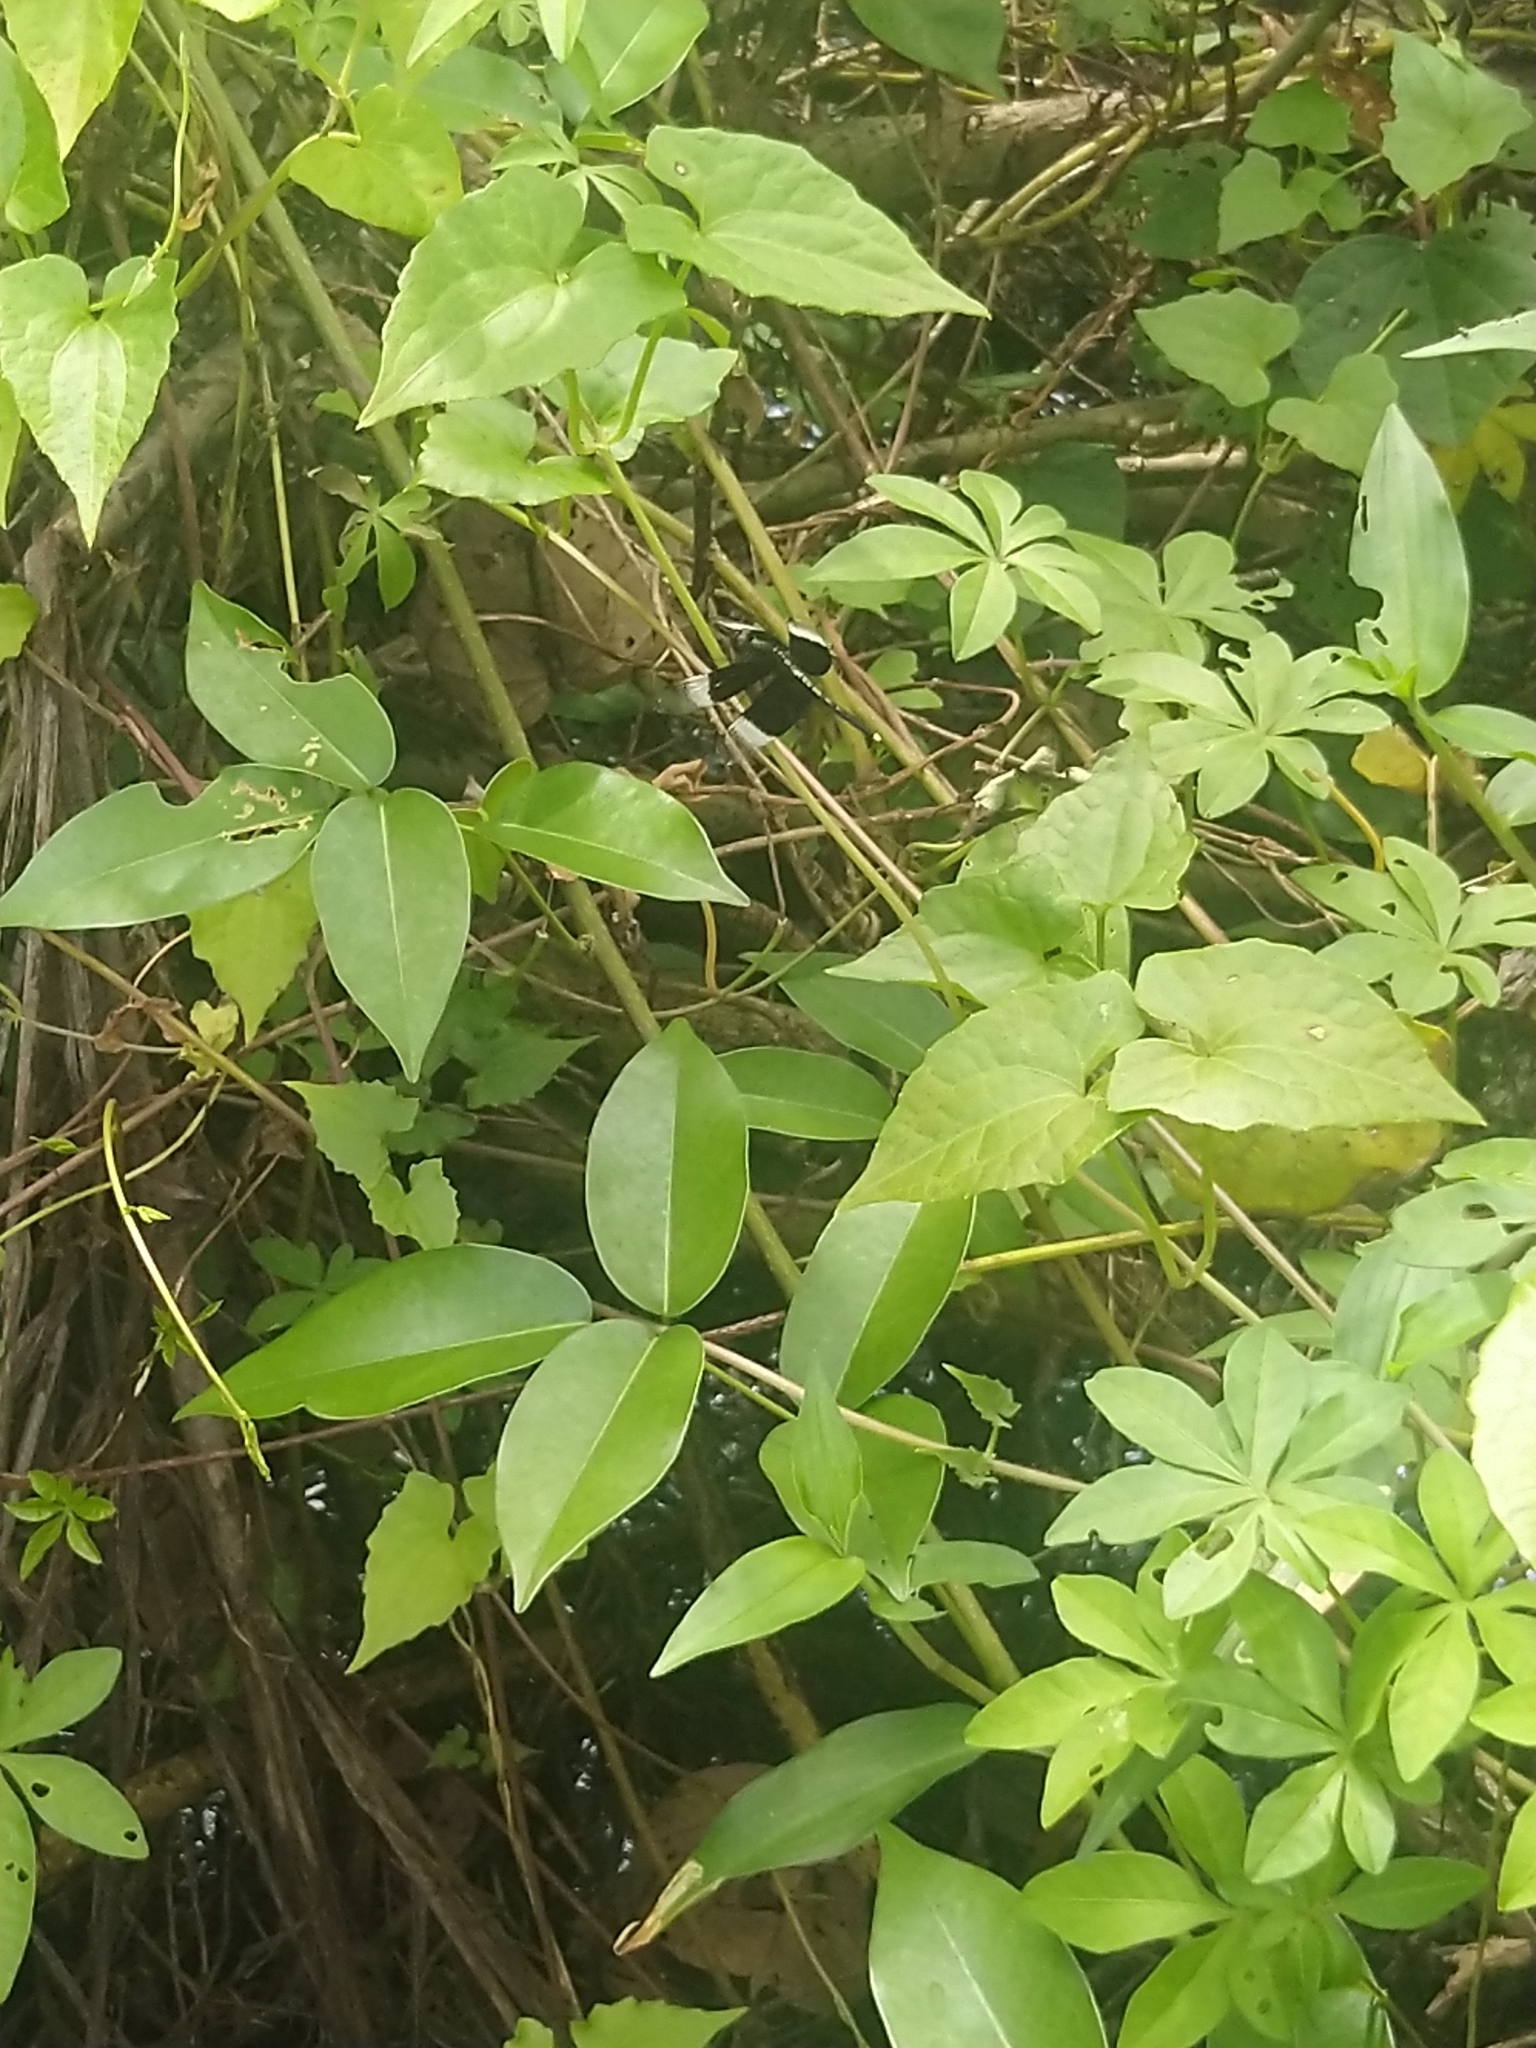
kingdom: Animalia
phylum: Arthropoda
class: Insecta
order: Odonata
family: Libellulidae
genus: Neurothemis
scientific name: Neurothemis tullia
